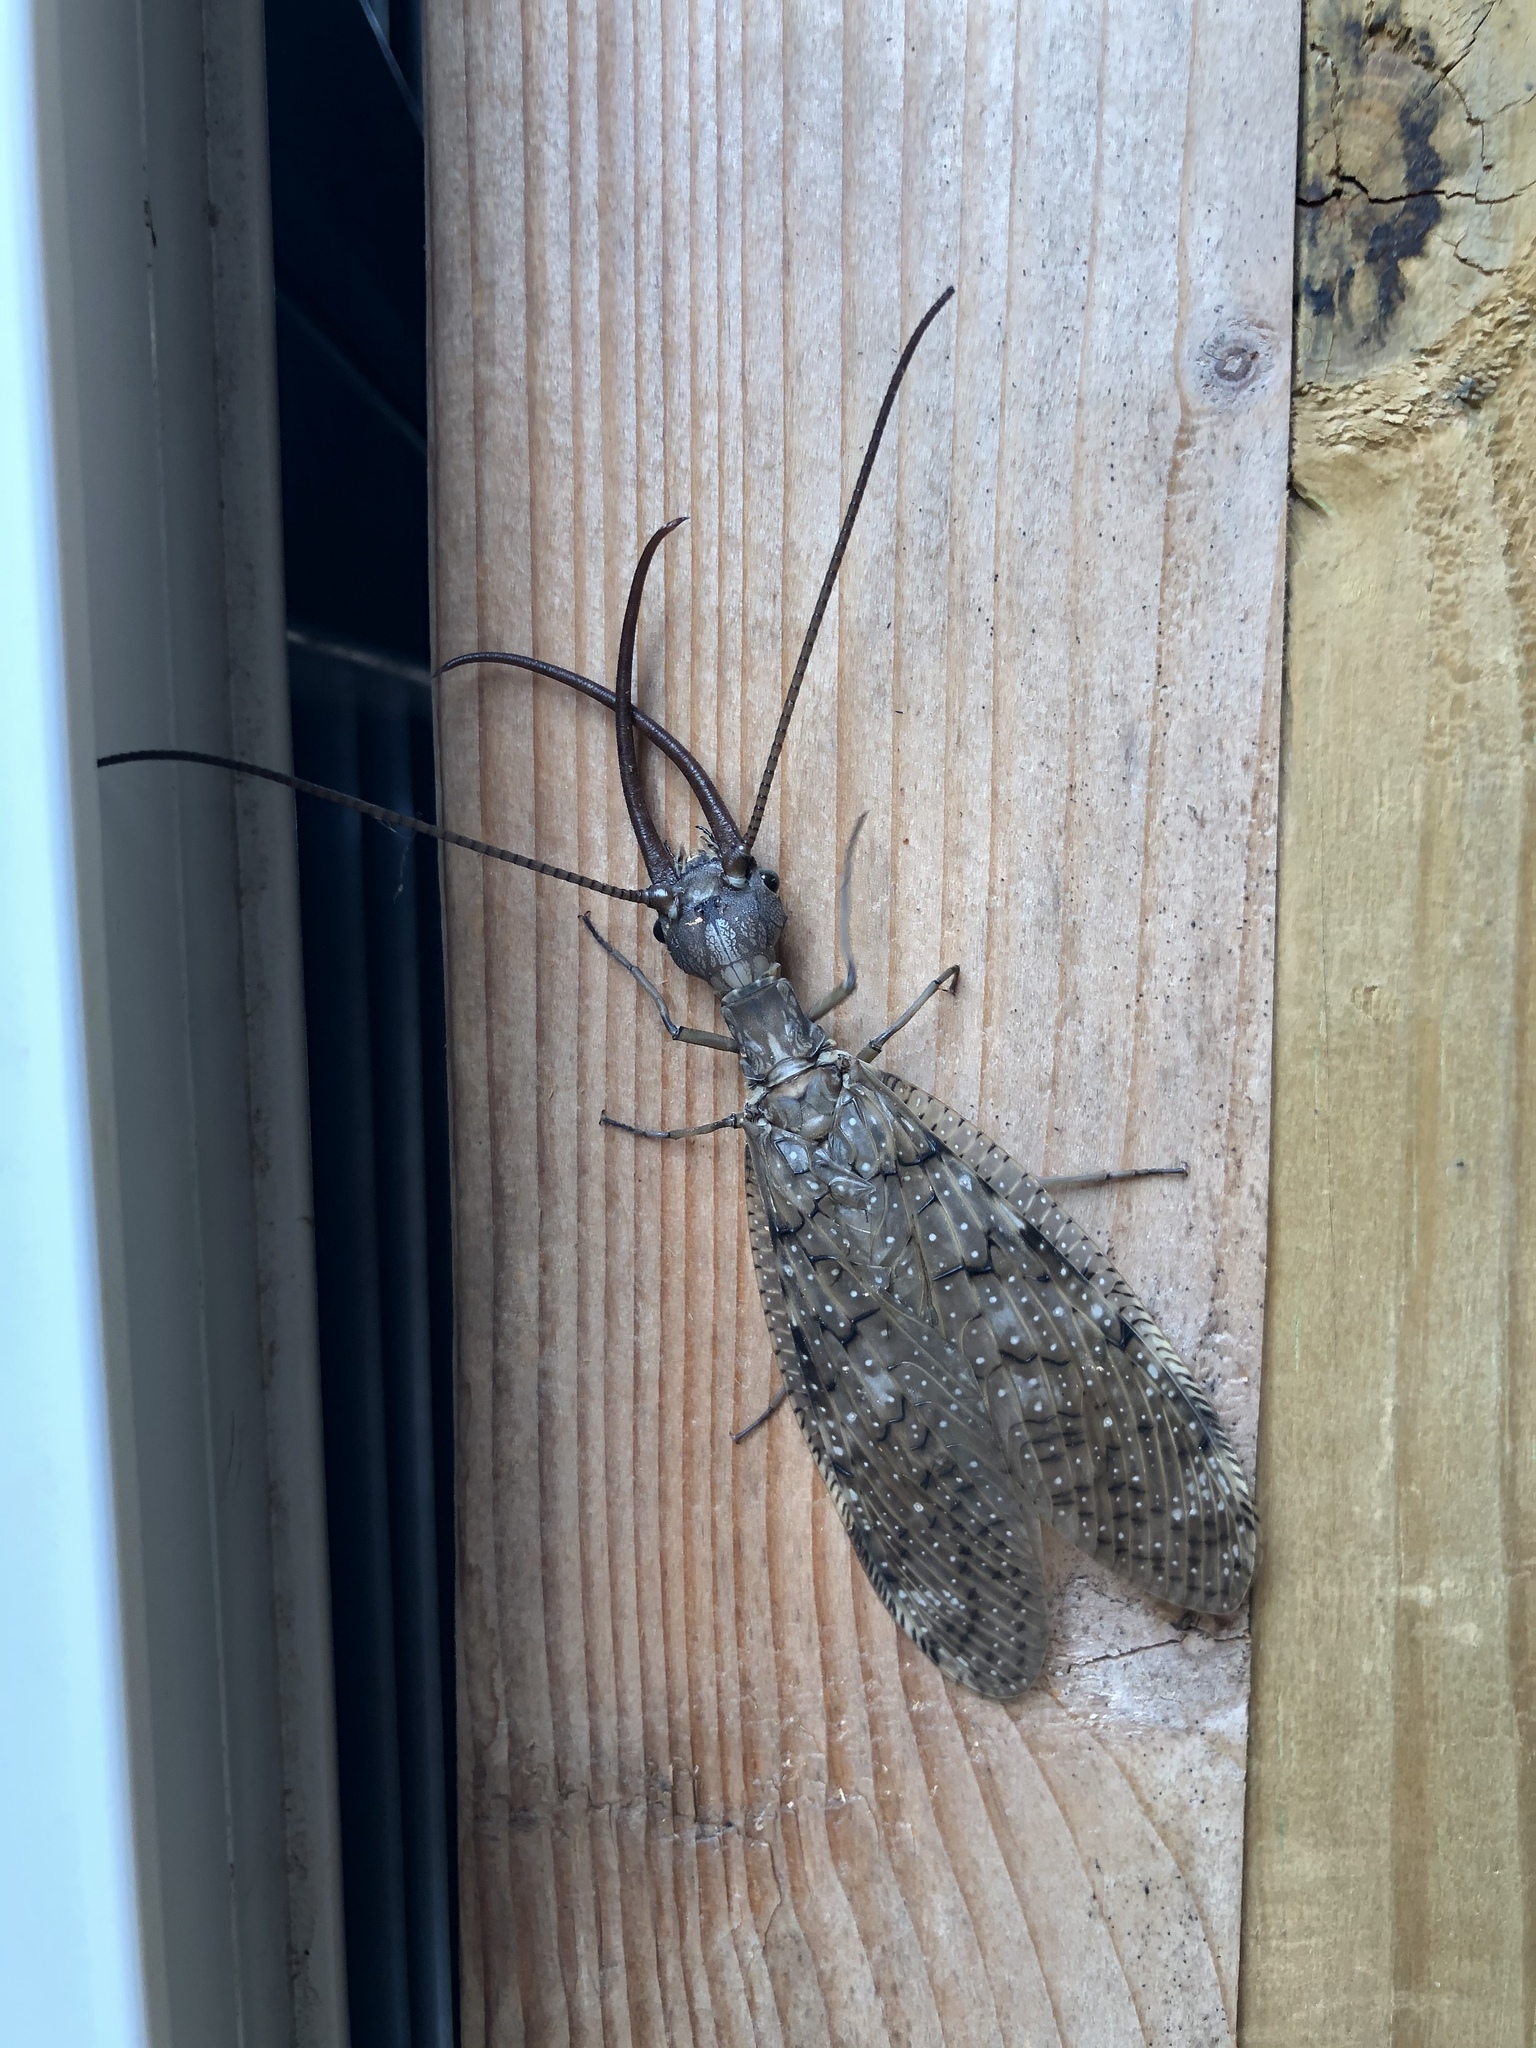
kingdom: Animalia
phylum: Arthropoda
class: Insecta
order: Megaloptera
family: Corydalidae
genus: Corydalus
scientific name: Corydalus cornutus
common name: Dobsonfly
